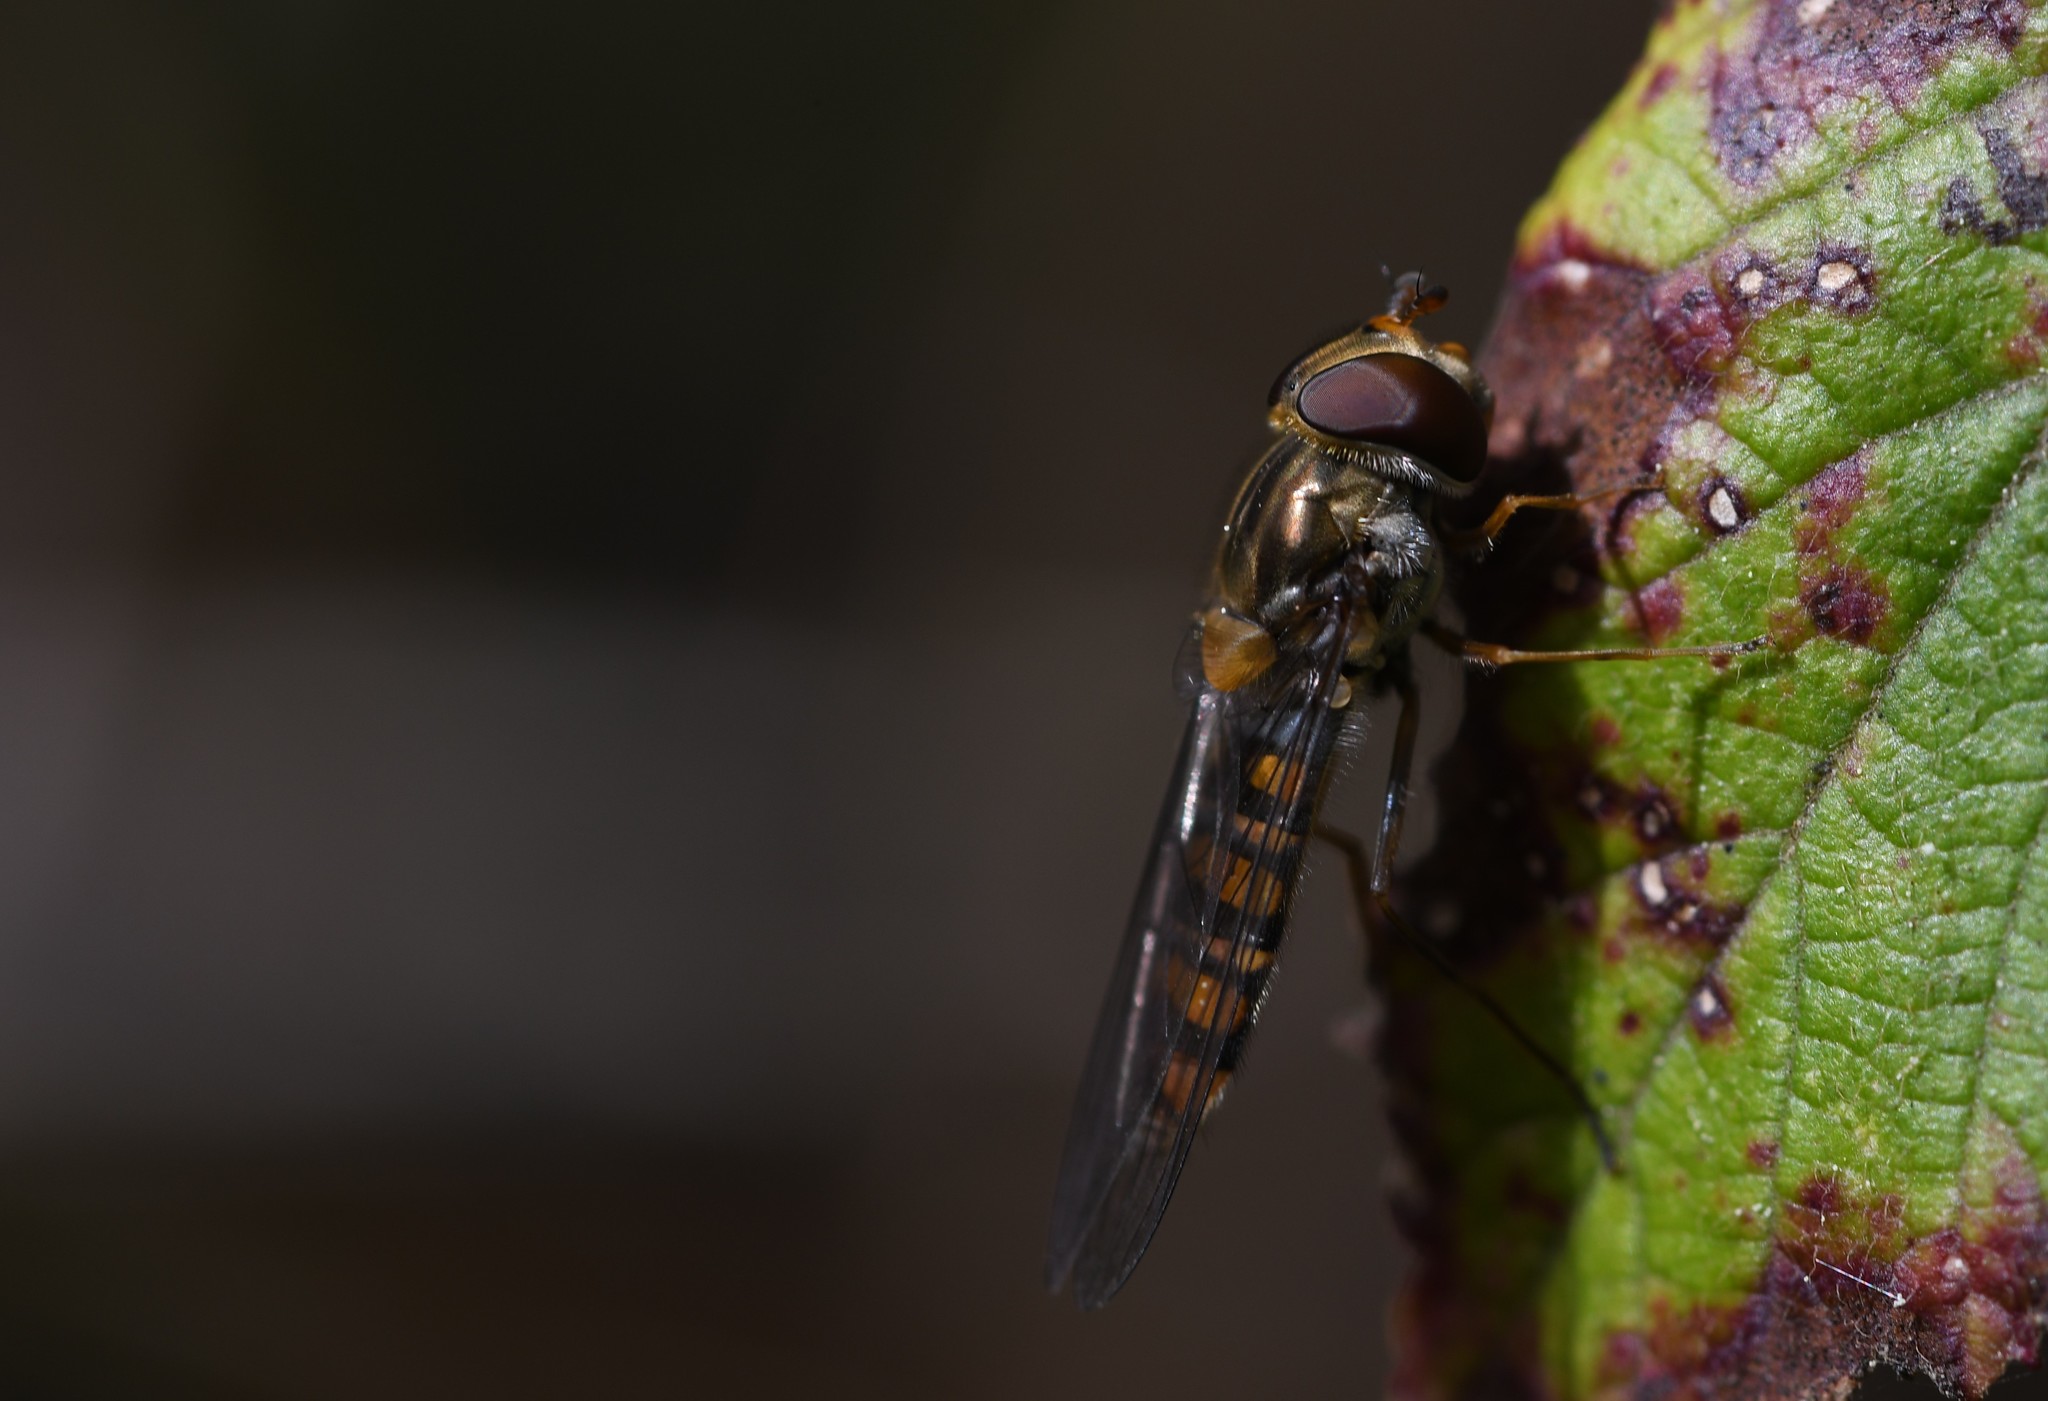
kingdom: Animalia
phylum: Arthropoda
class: Insecta
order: Diptera
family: Syrphidae
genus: Episyrphus
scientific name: Episyrphus balteatus
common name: Marmalade hoverfly
